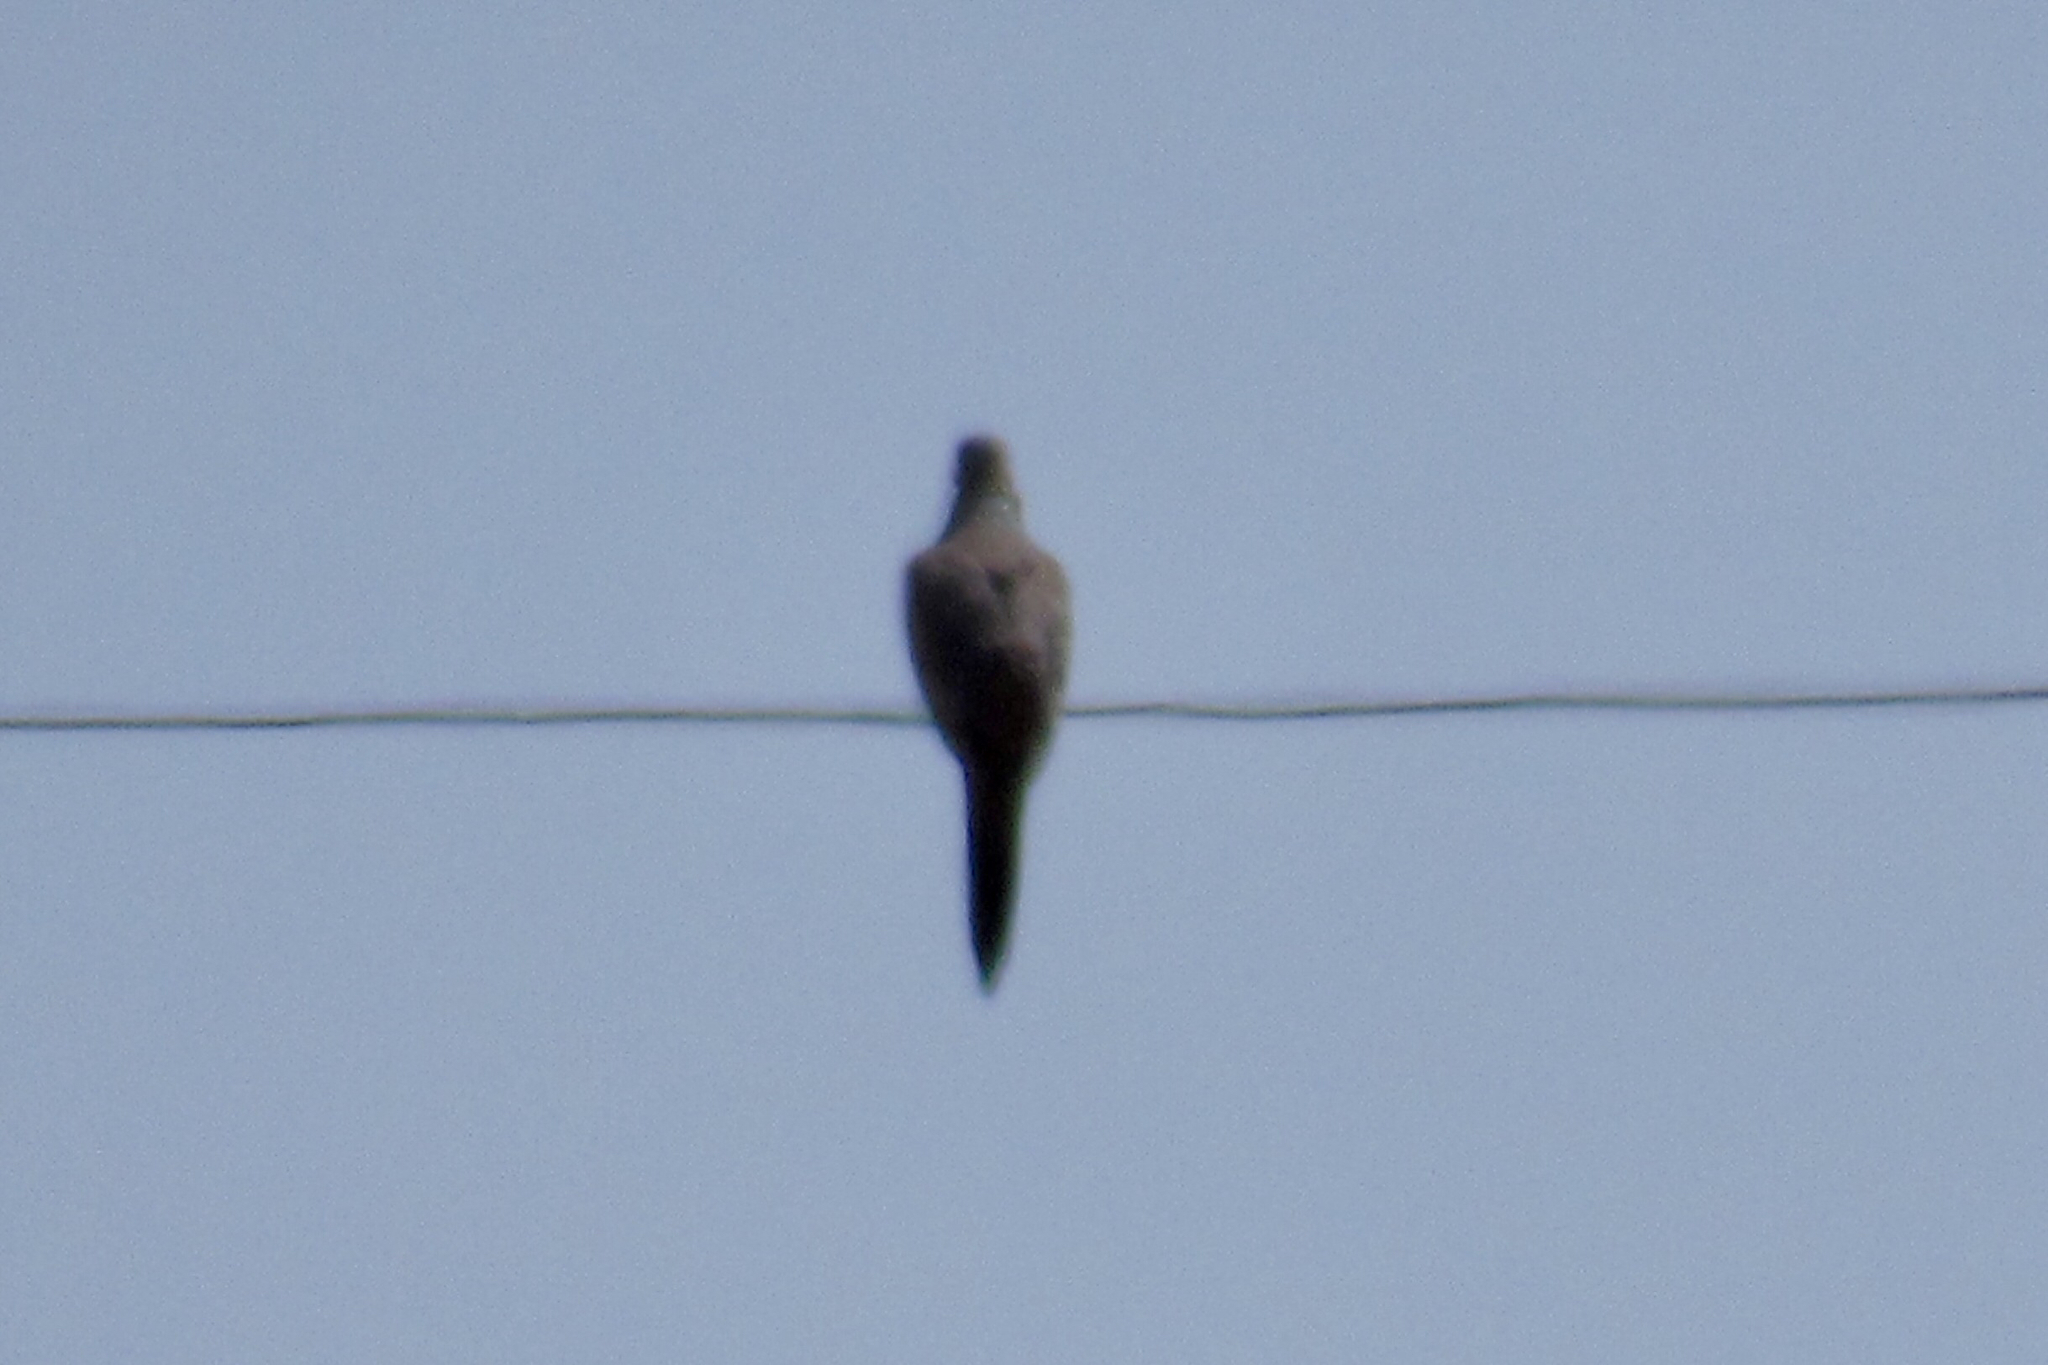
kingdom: Animalia
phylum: Chordata
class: Aves
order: Columbiformes
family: Columbidae
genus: Zenaida
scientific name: Zenaida macroura
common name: Mourning dove
